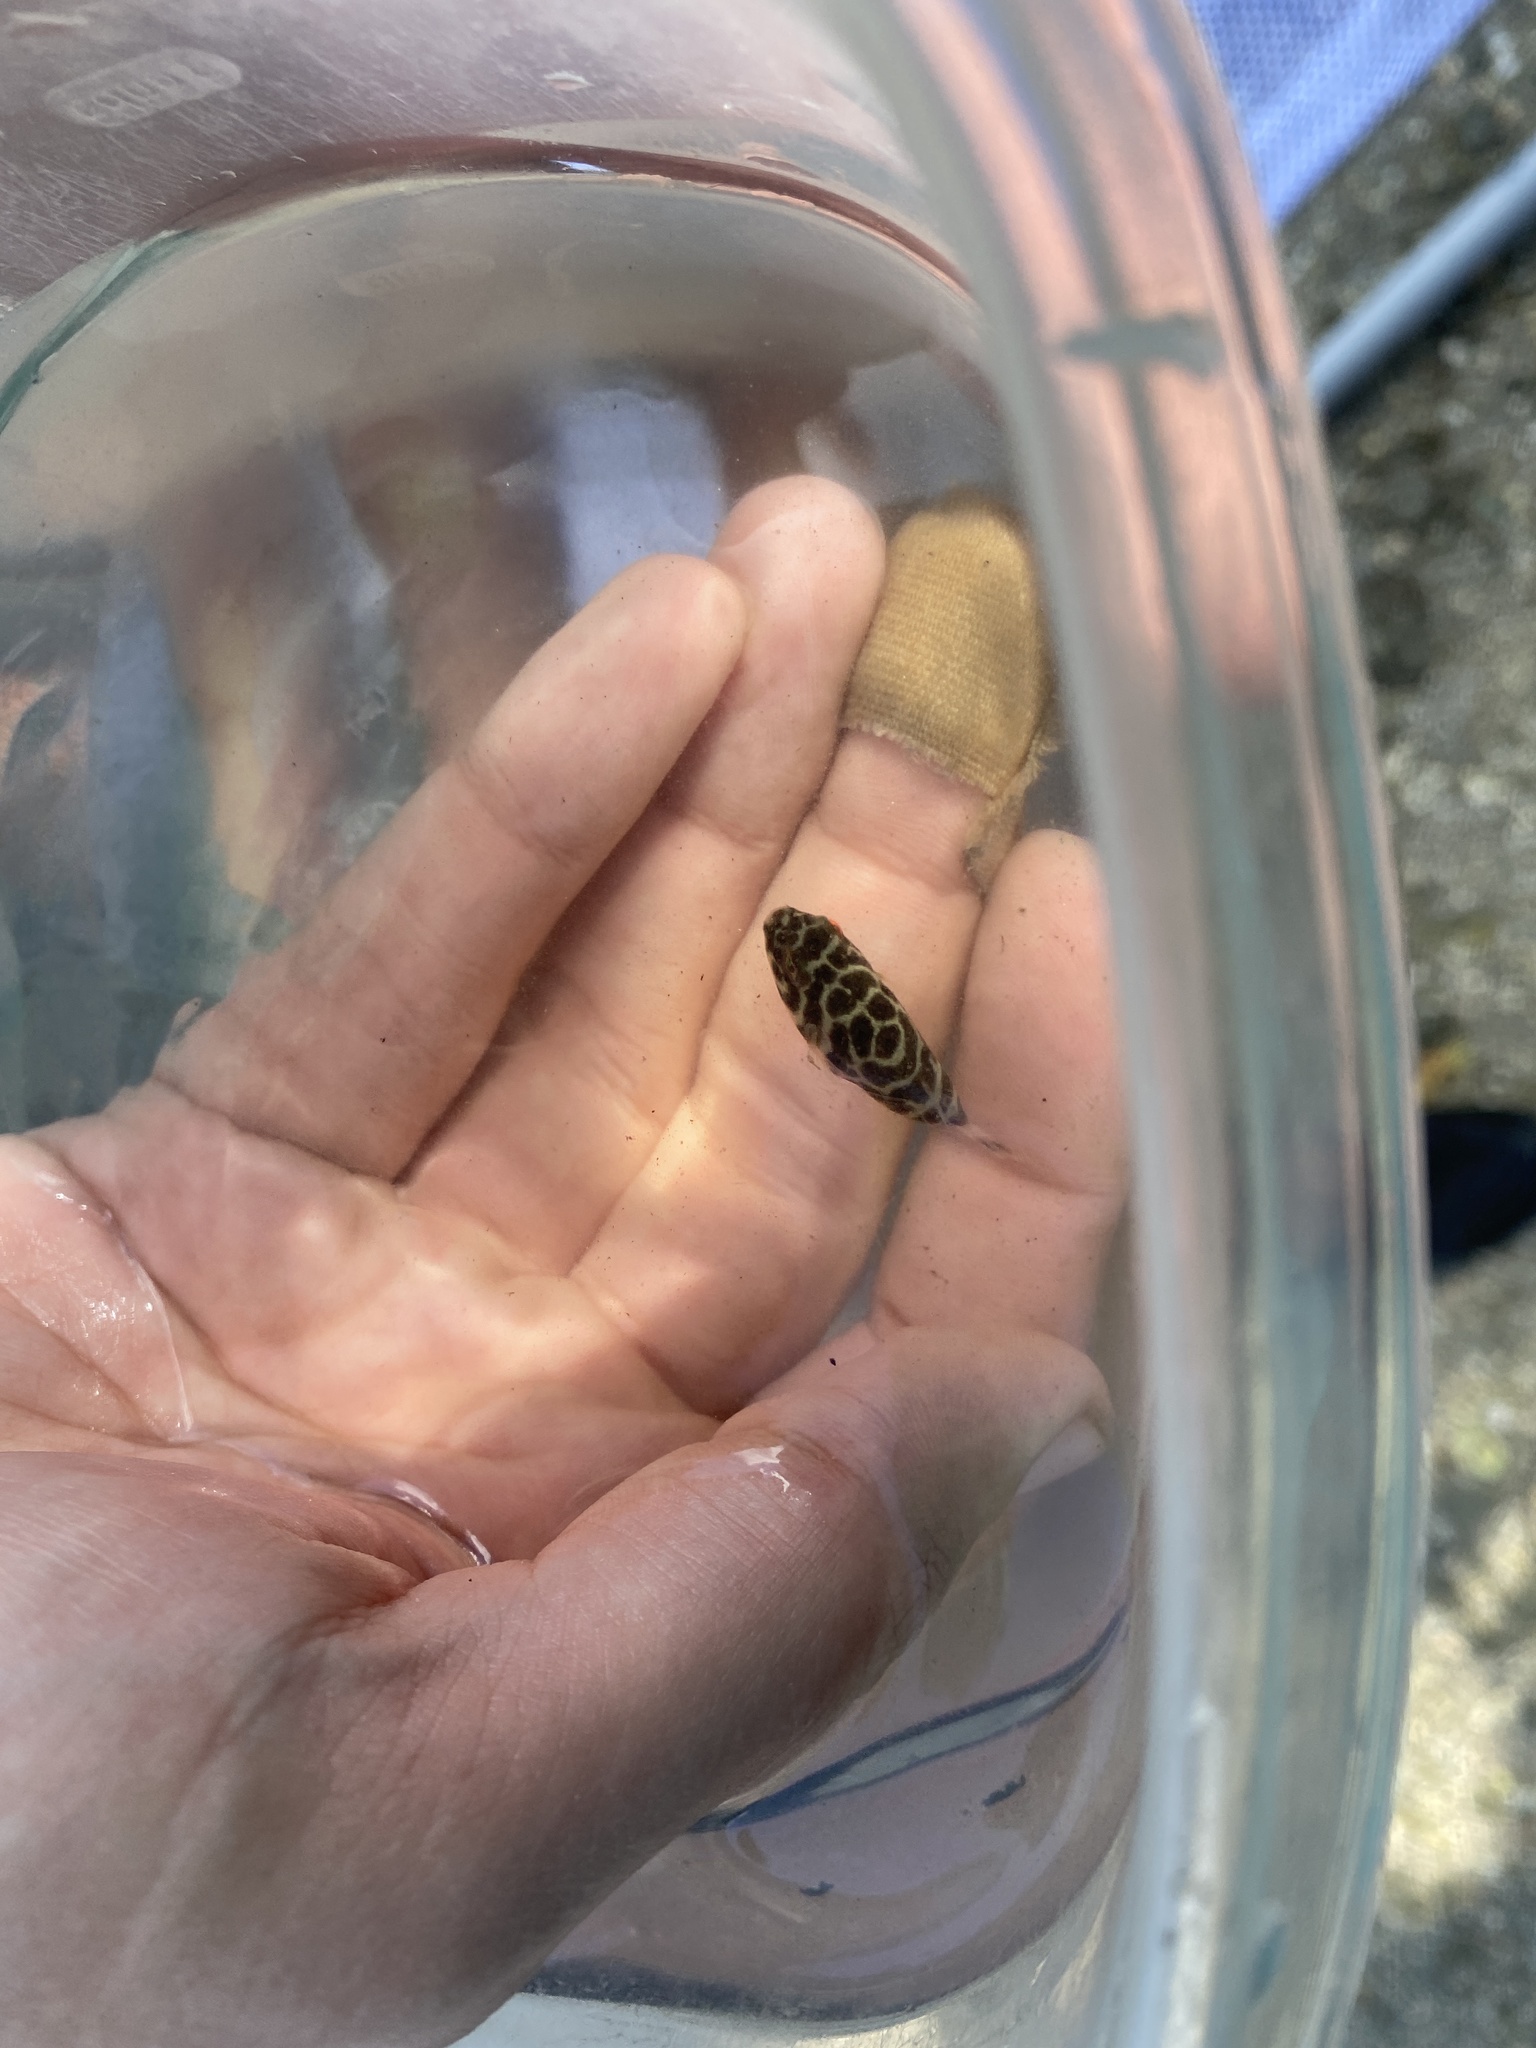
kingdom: Animalia
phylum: Chordata
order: Tetraodontiformes
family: Tetraodontidae
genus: Sphoeroides
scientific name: Sphoeroides testudineus
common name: Checkered puffer
